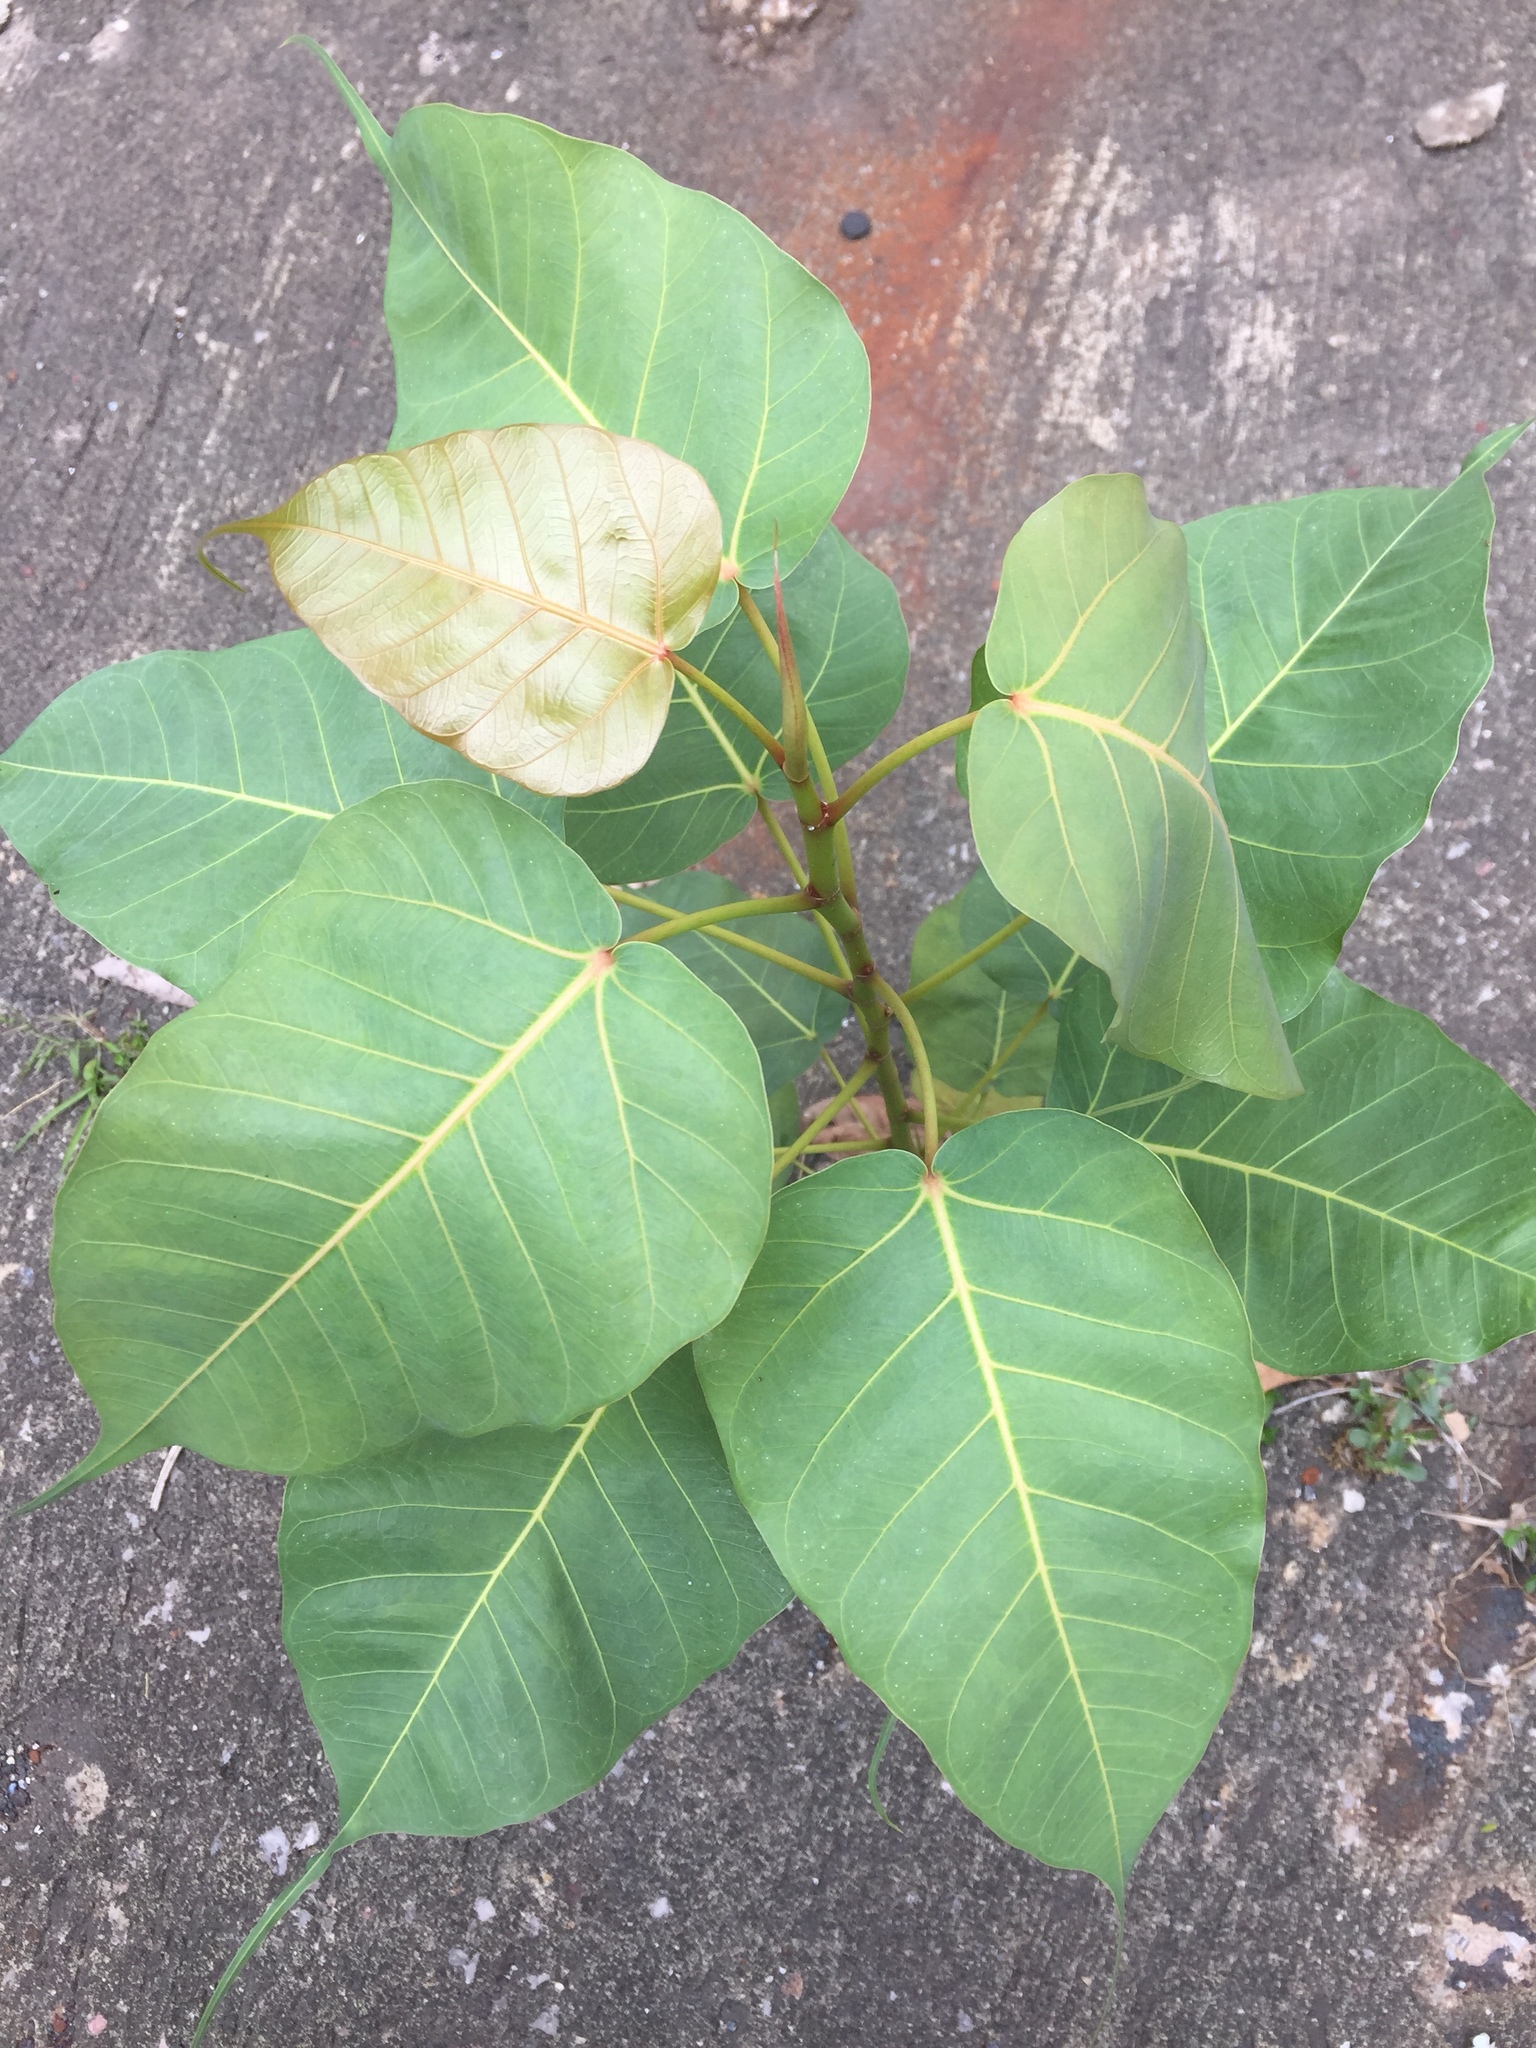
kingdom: Plantae
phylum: Tracheophyta
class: Magnoliopsida
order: Rosales
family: Moraceae
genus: Ficus
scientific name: Ficus religiosa
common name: Bodhi tree
